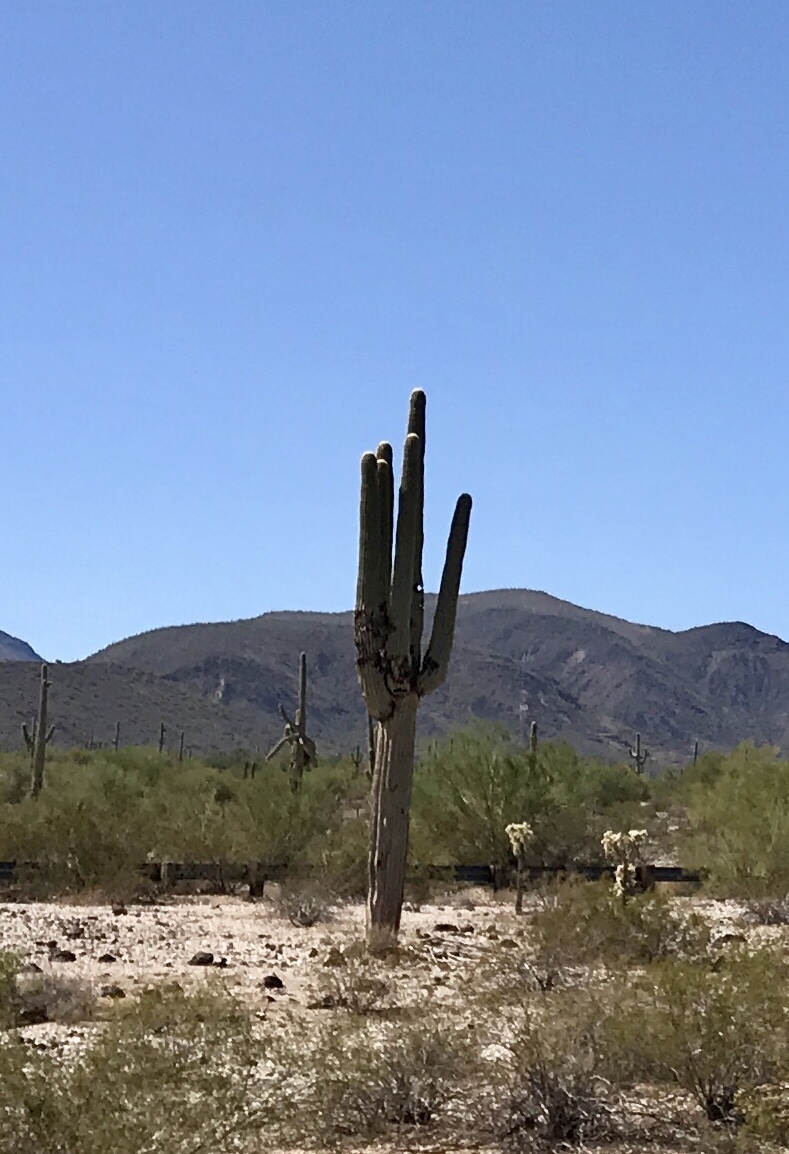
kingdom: Plantae
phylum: Tracheophyta
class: Magnoliopsida
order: Caryophyllales
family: Cactaceae
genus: Carnegiea
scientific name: Carnegiea gigantea
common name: Saguaro
